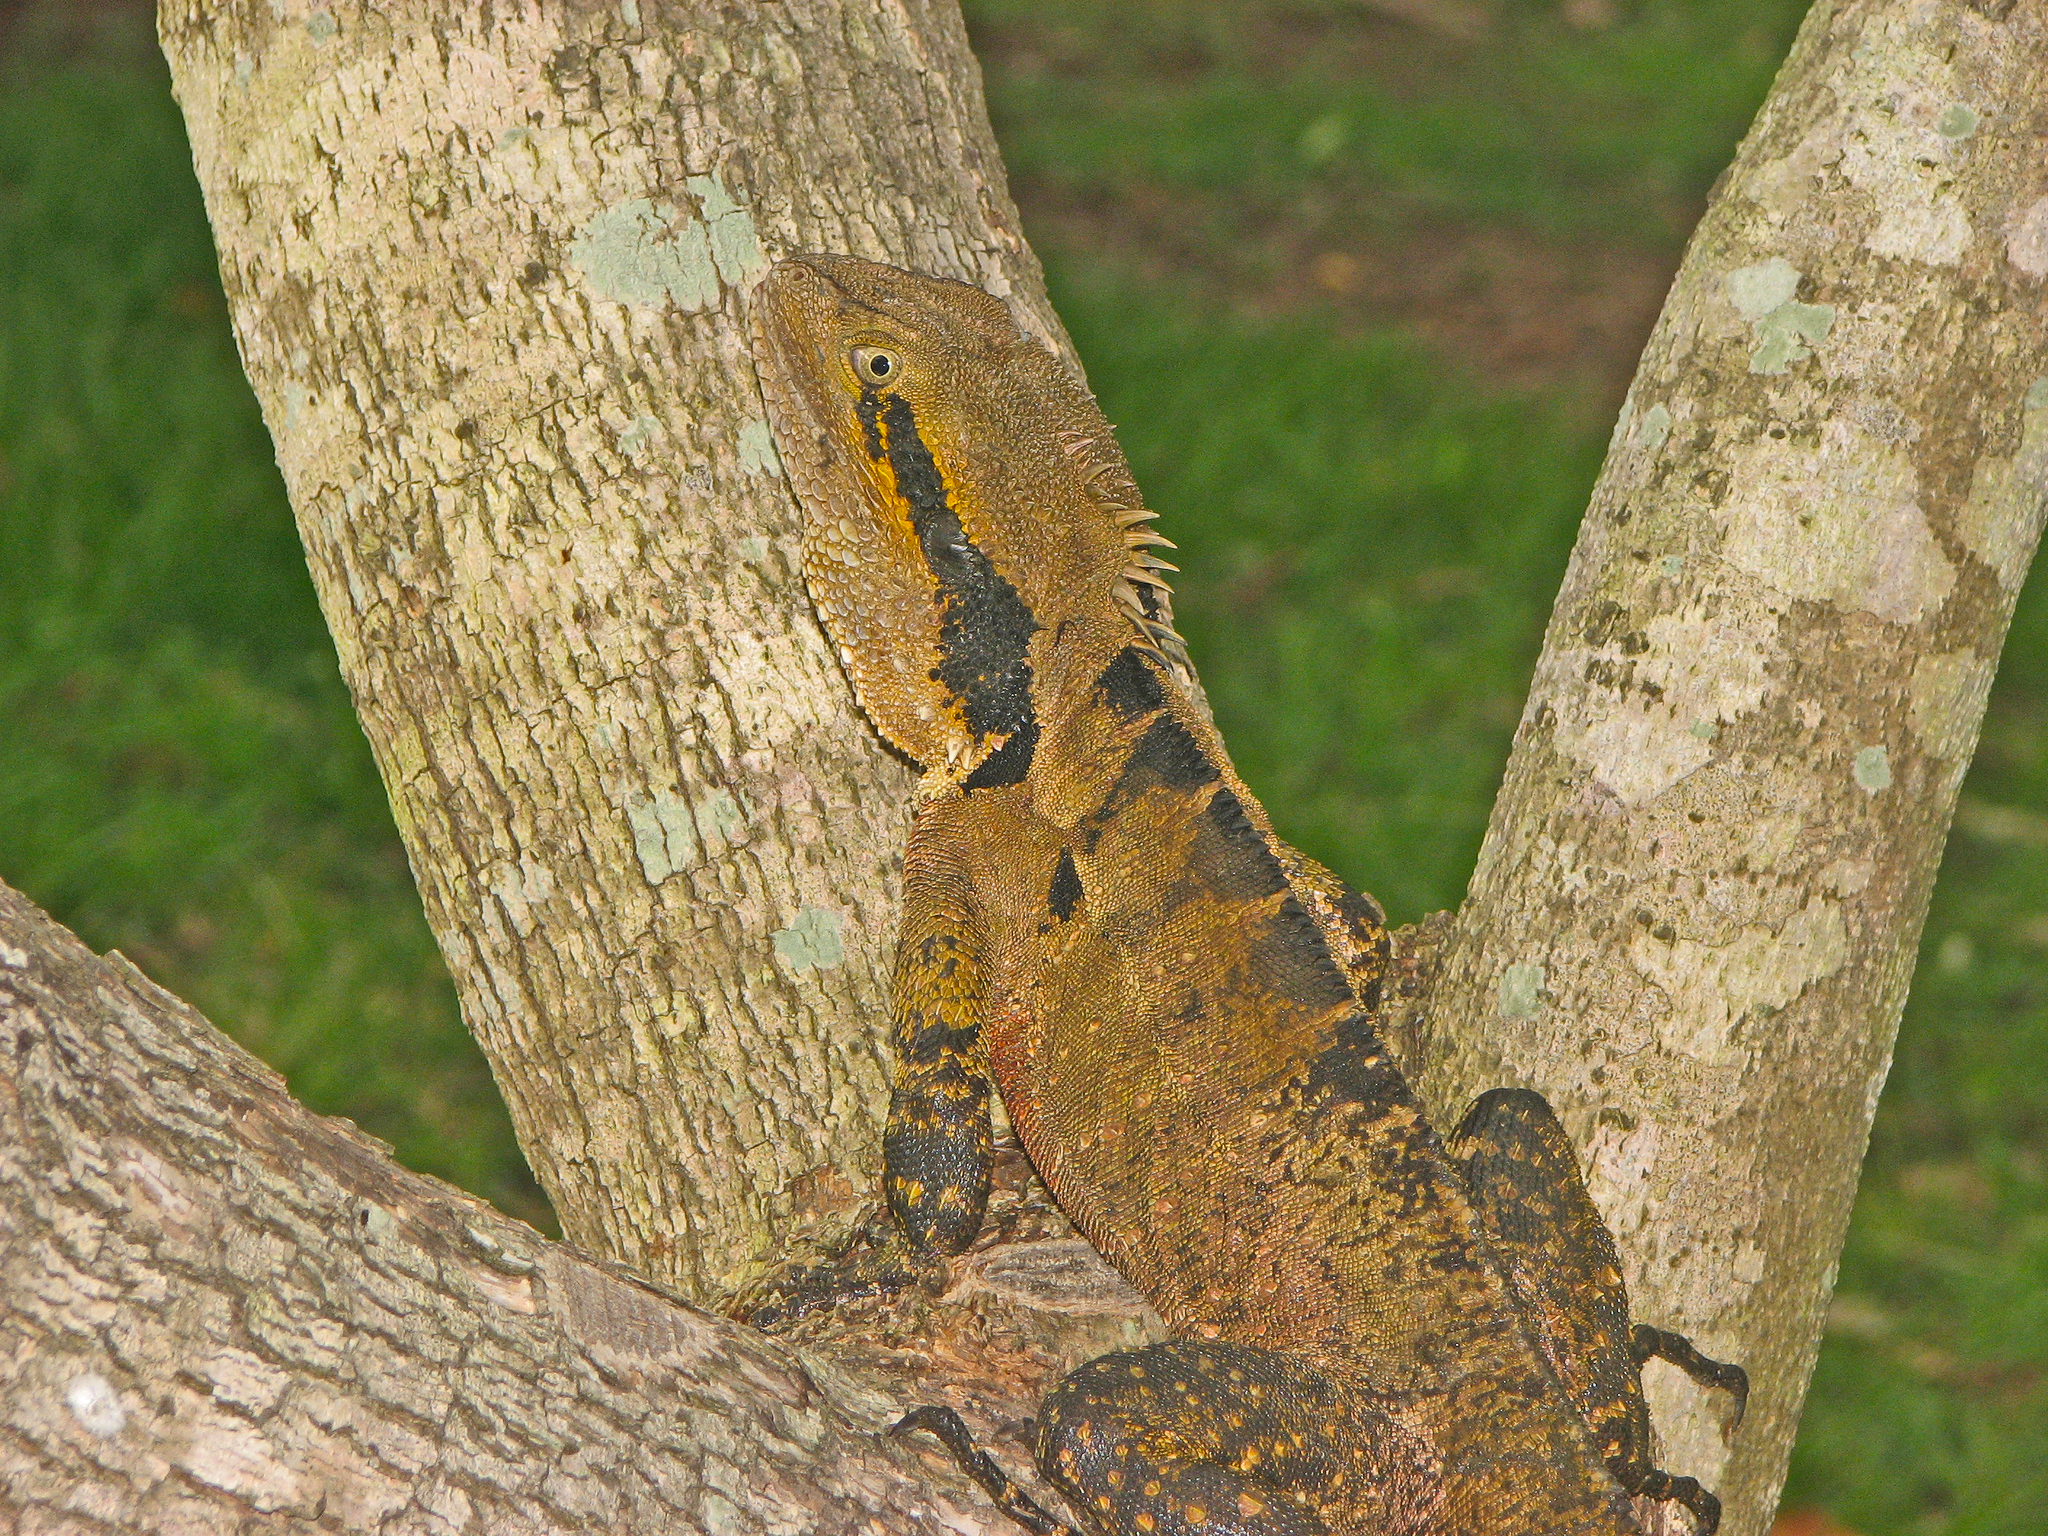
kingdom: Animalia
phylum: Chordata
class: Squamata
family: Agamidae
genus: Intellagama
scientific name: Intellagama lesueurii
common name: Eastern water dragon
